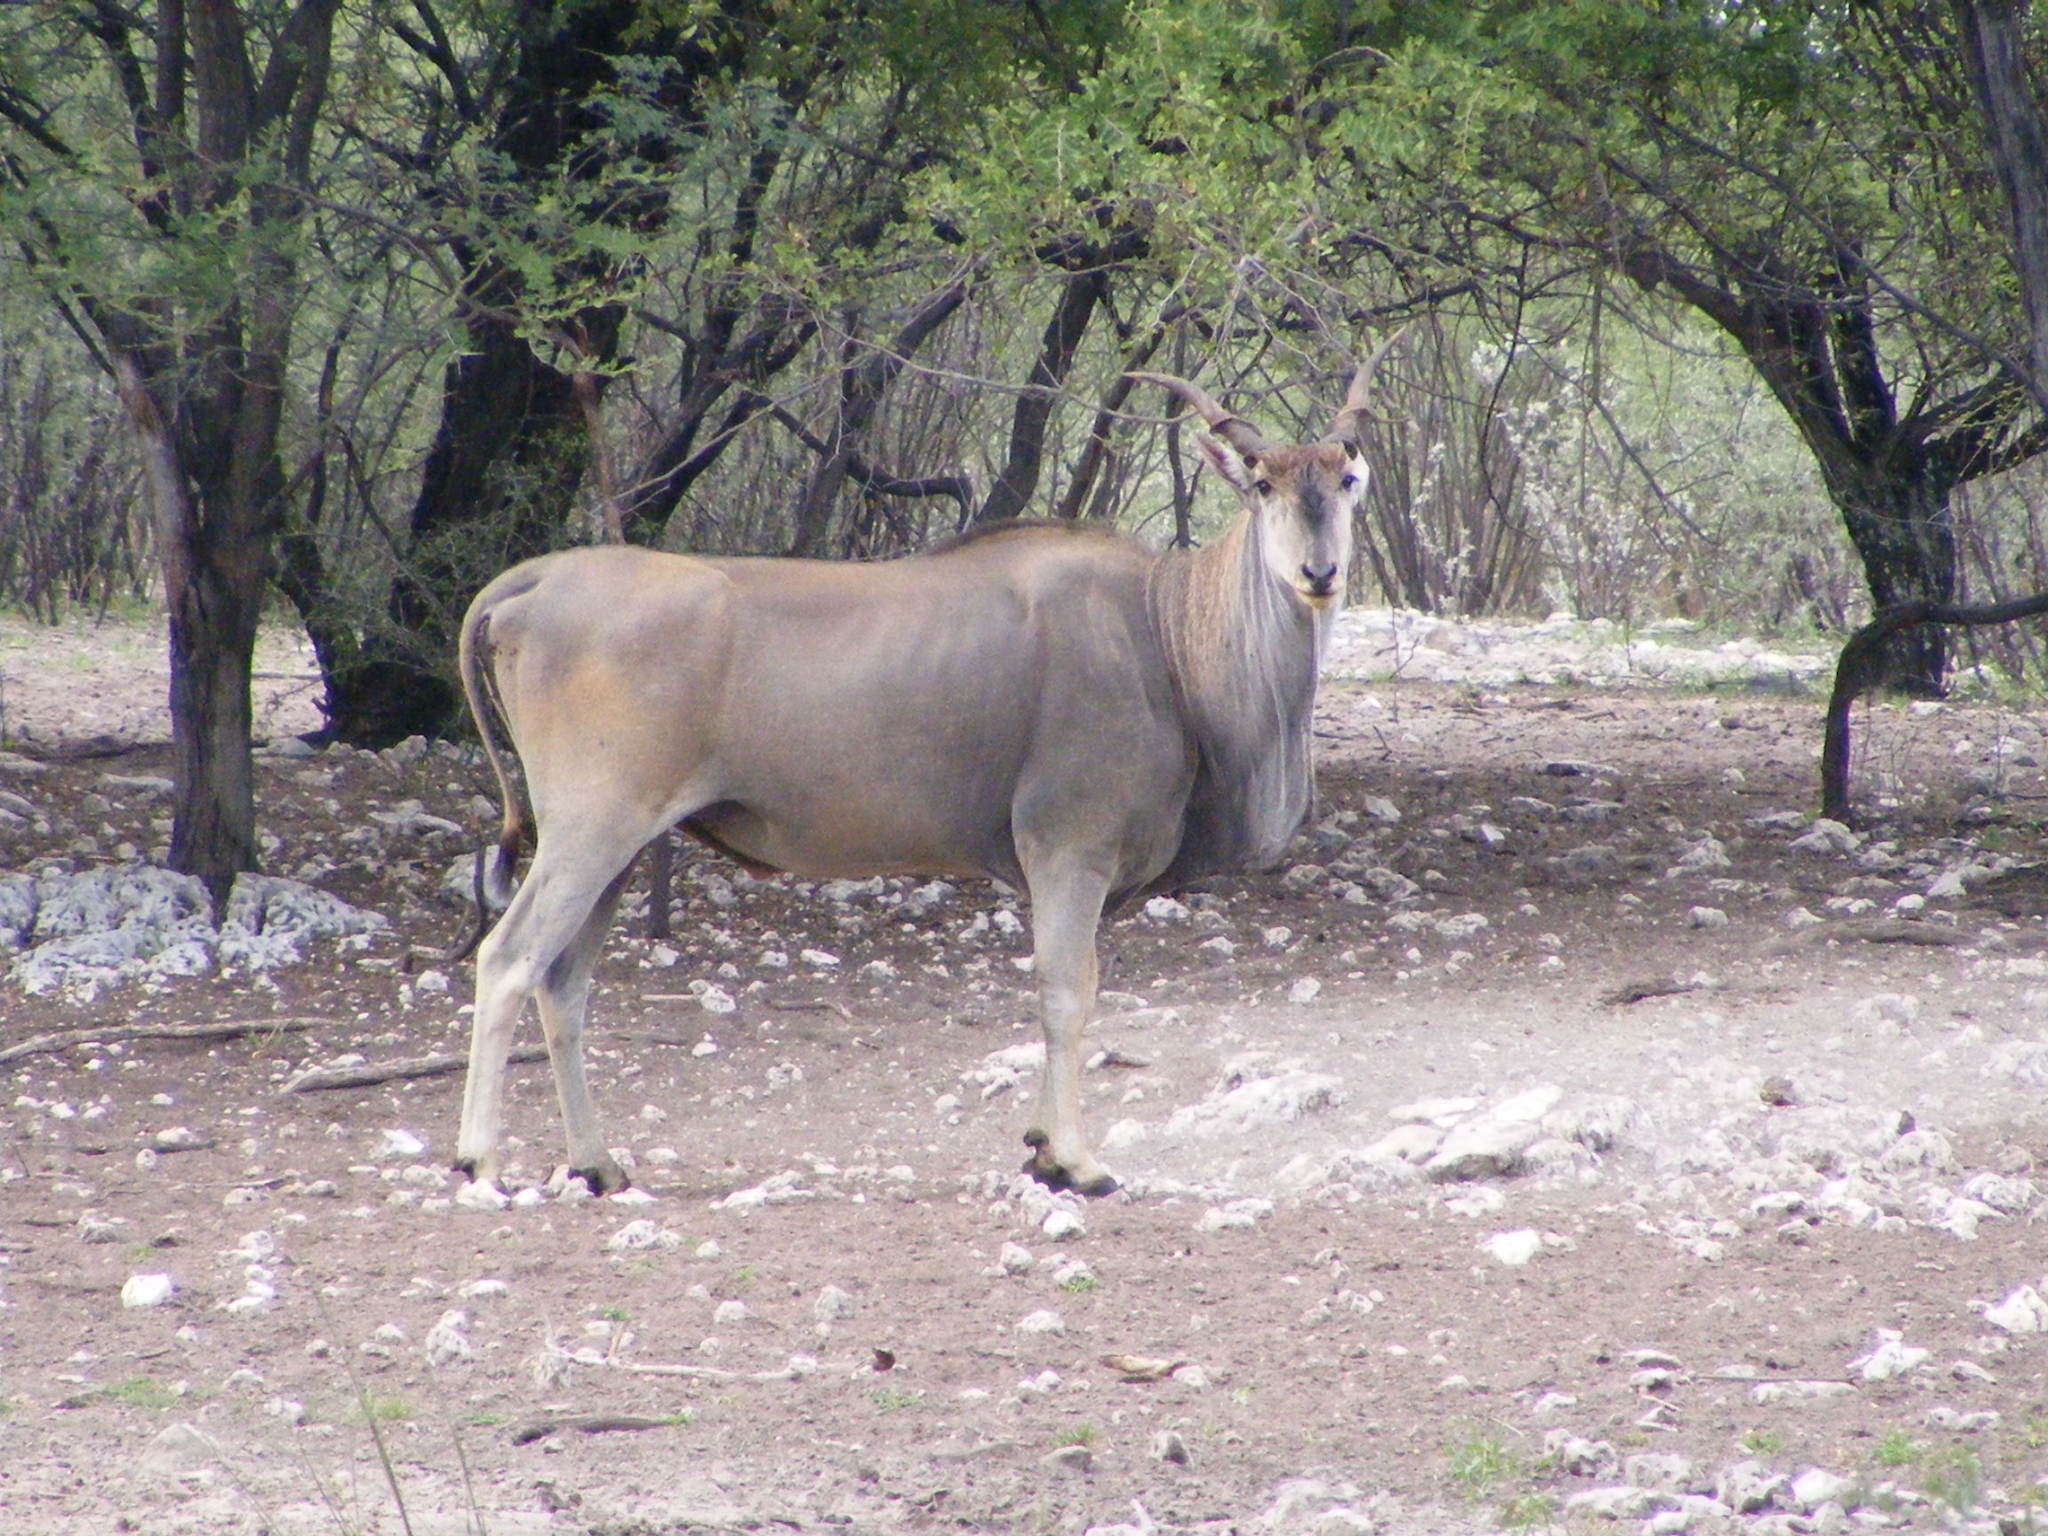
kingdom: Animalia
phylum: Chordata
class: Mammalia
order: Artiodactyla
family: Bovidae
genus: Taurotragus
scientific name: Taurotragus oryx
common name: Common eland
